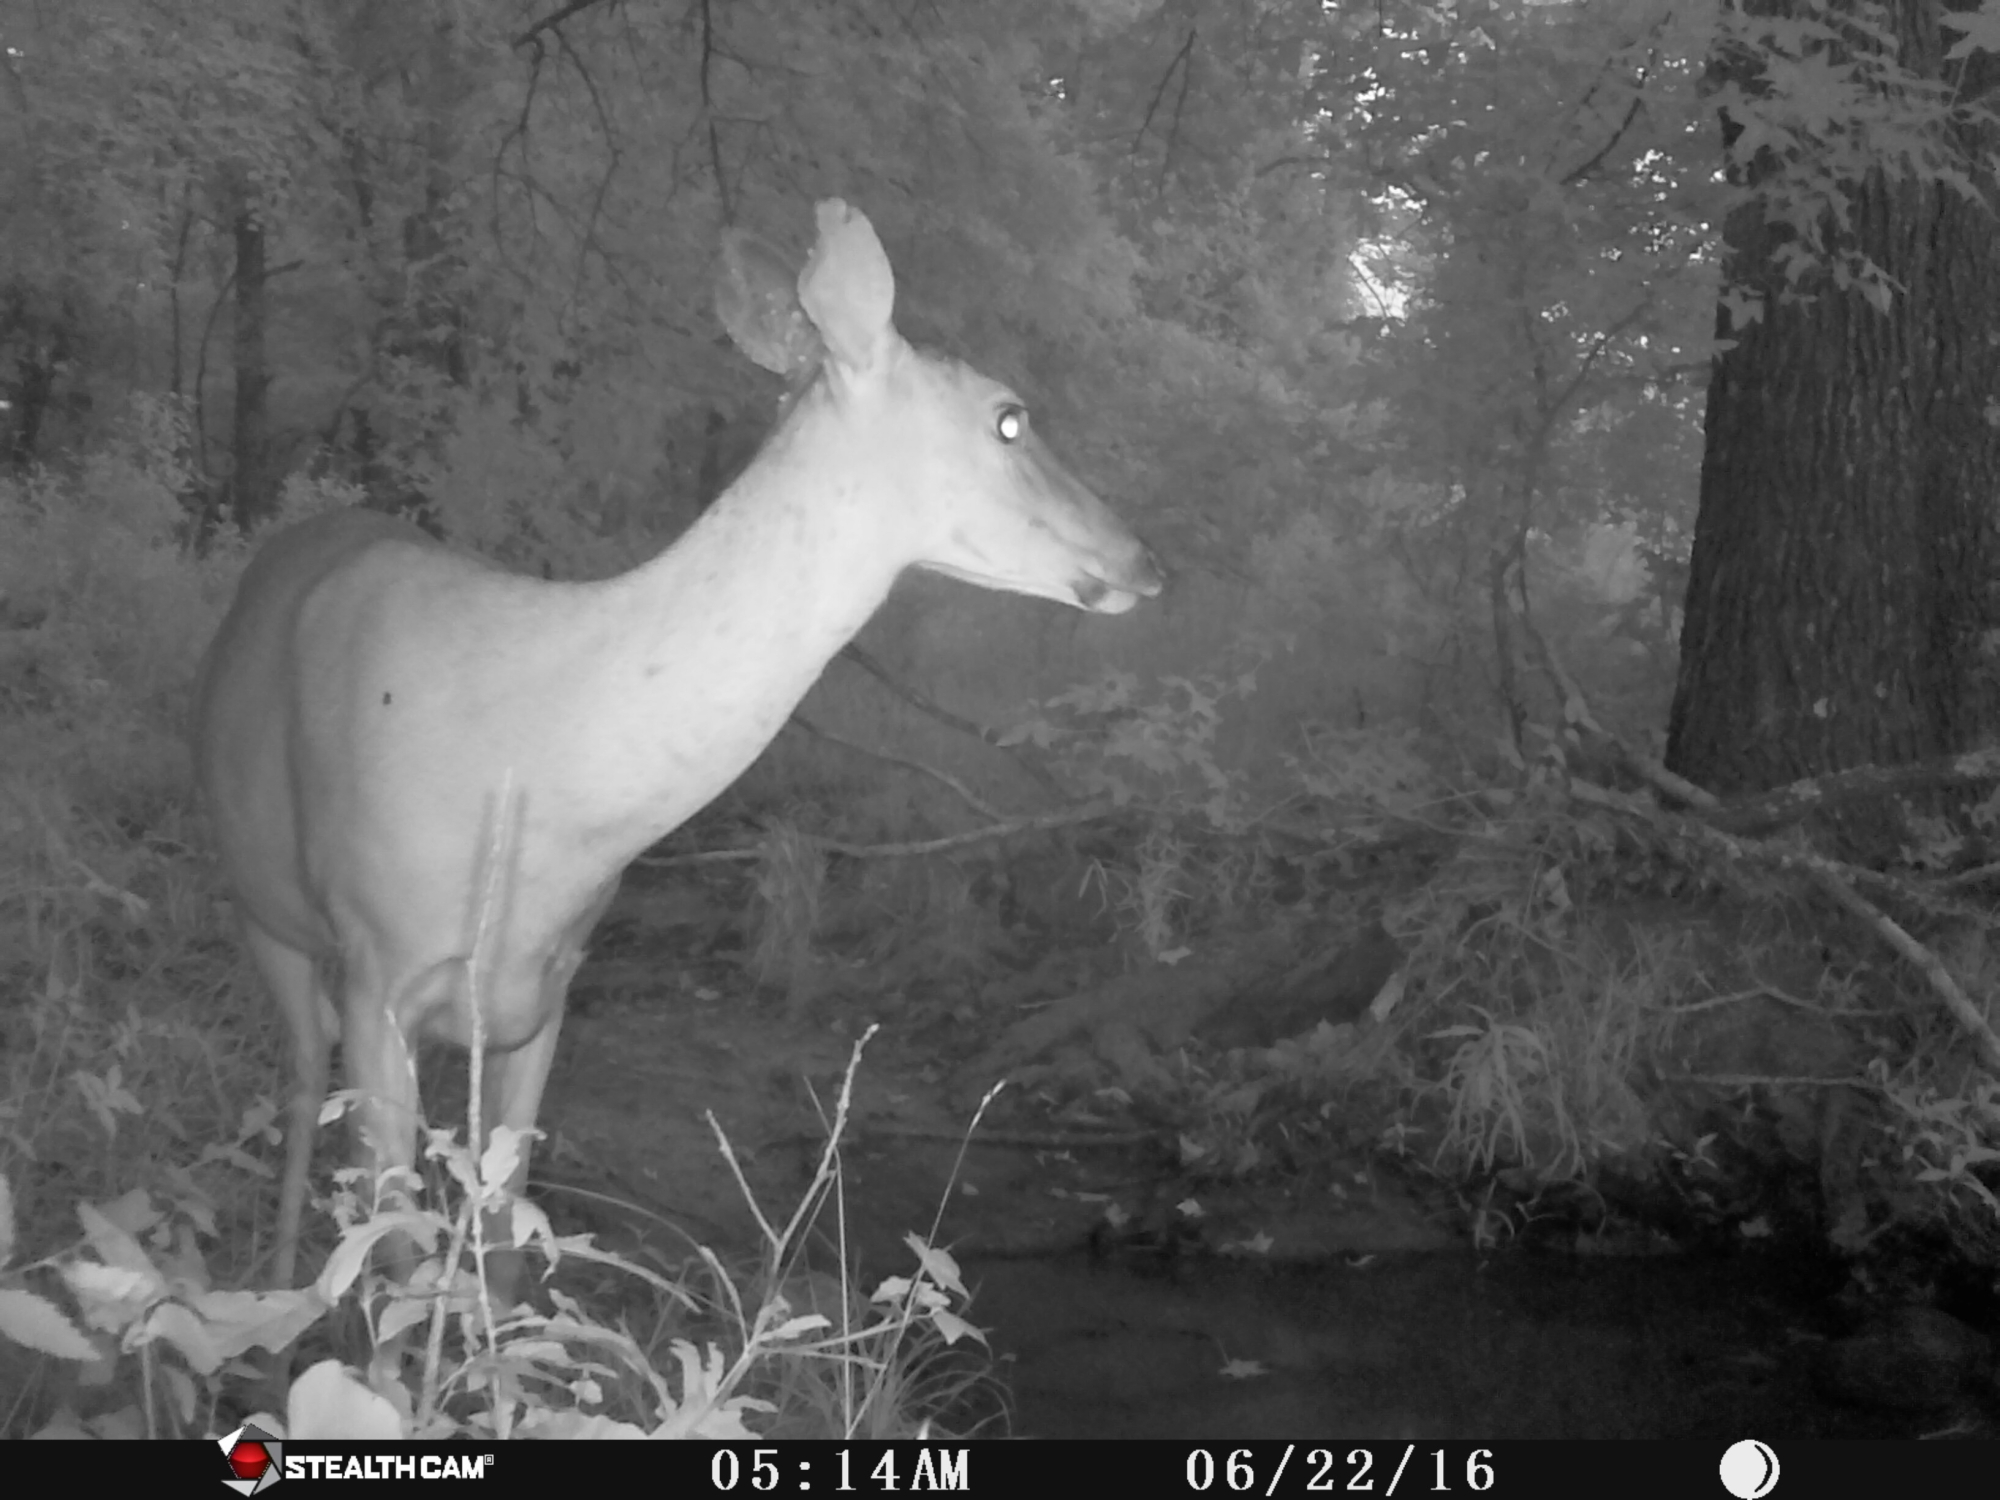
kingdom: Animalia
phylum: Chordata
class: Mammalia
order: Artiodactyla
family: Cervidae
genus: Odocoileus
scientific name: Odocoileus virginianus
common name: White-tailed deer
